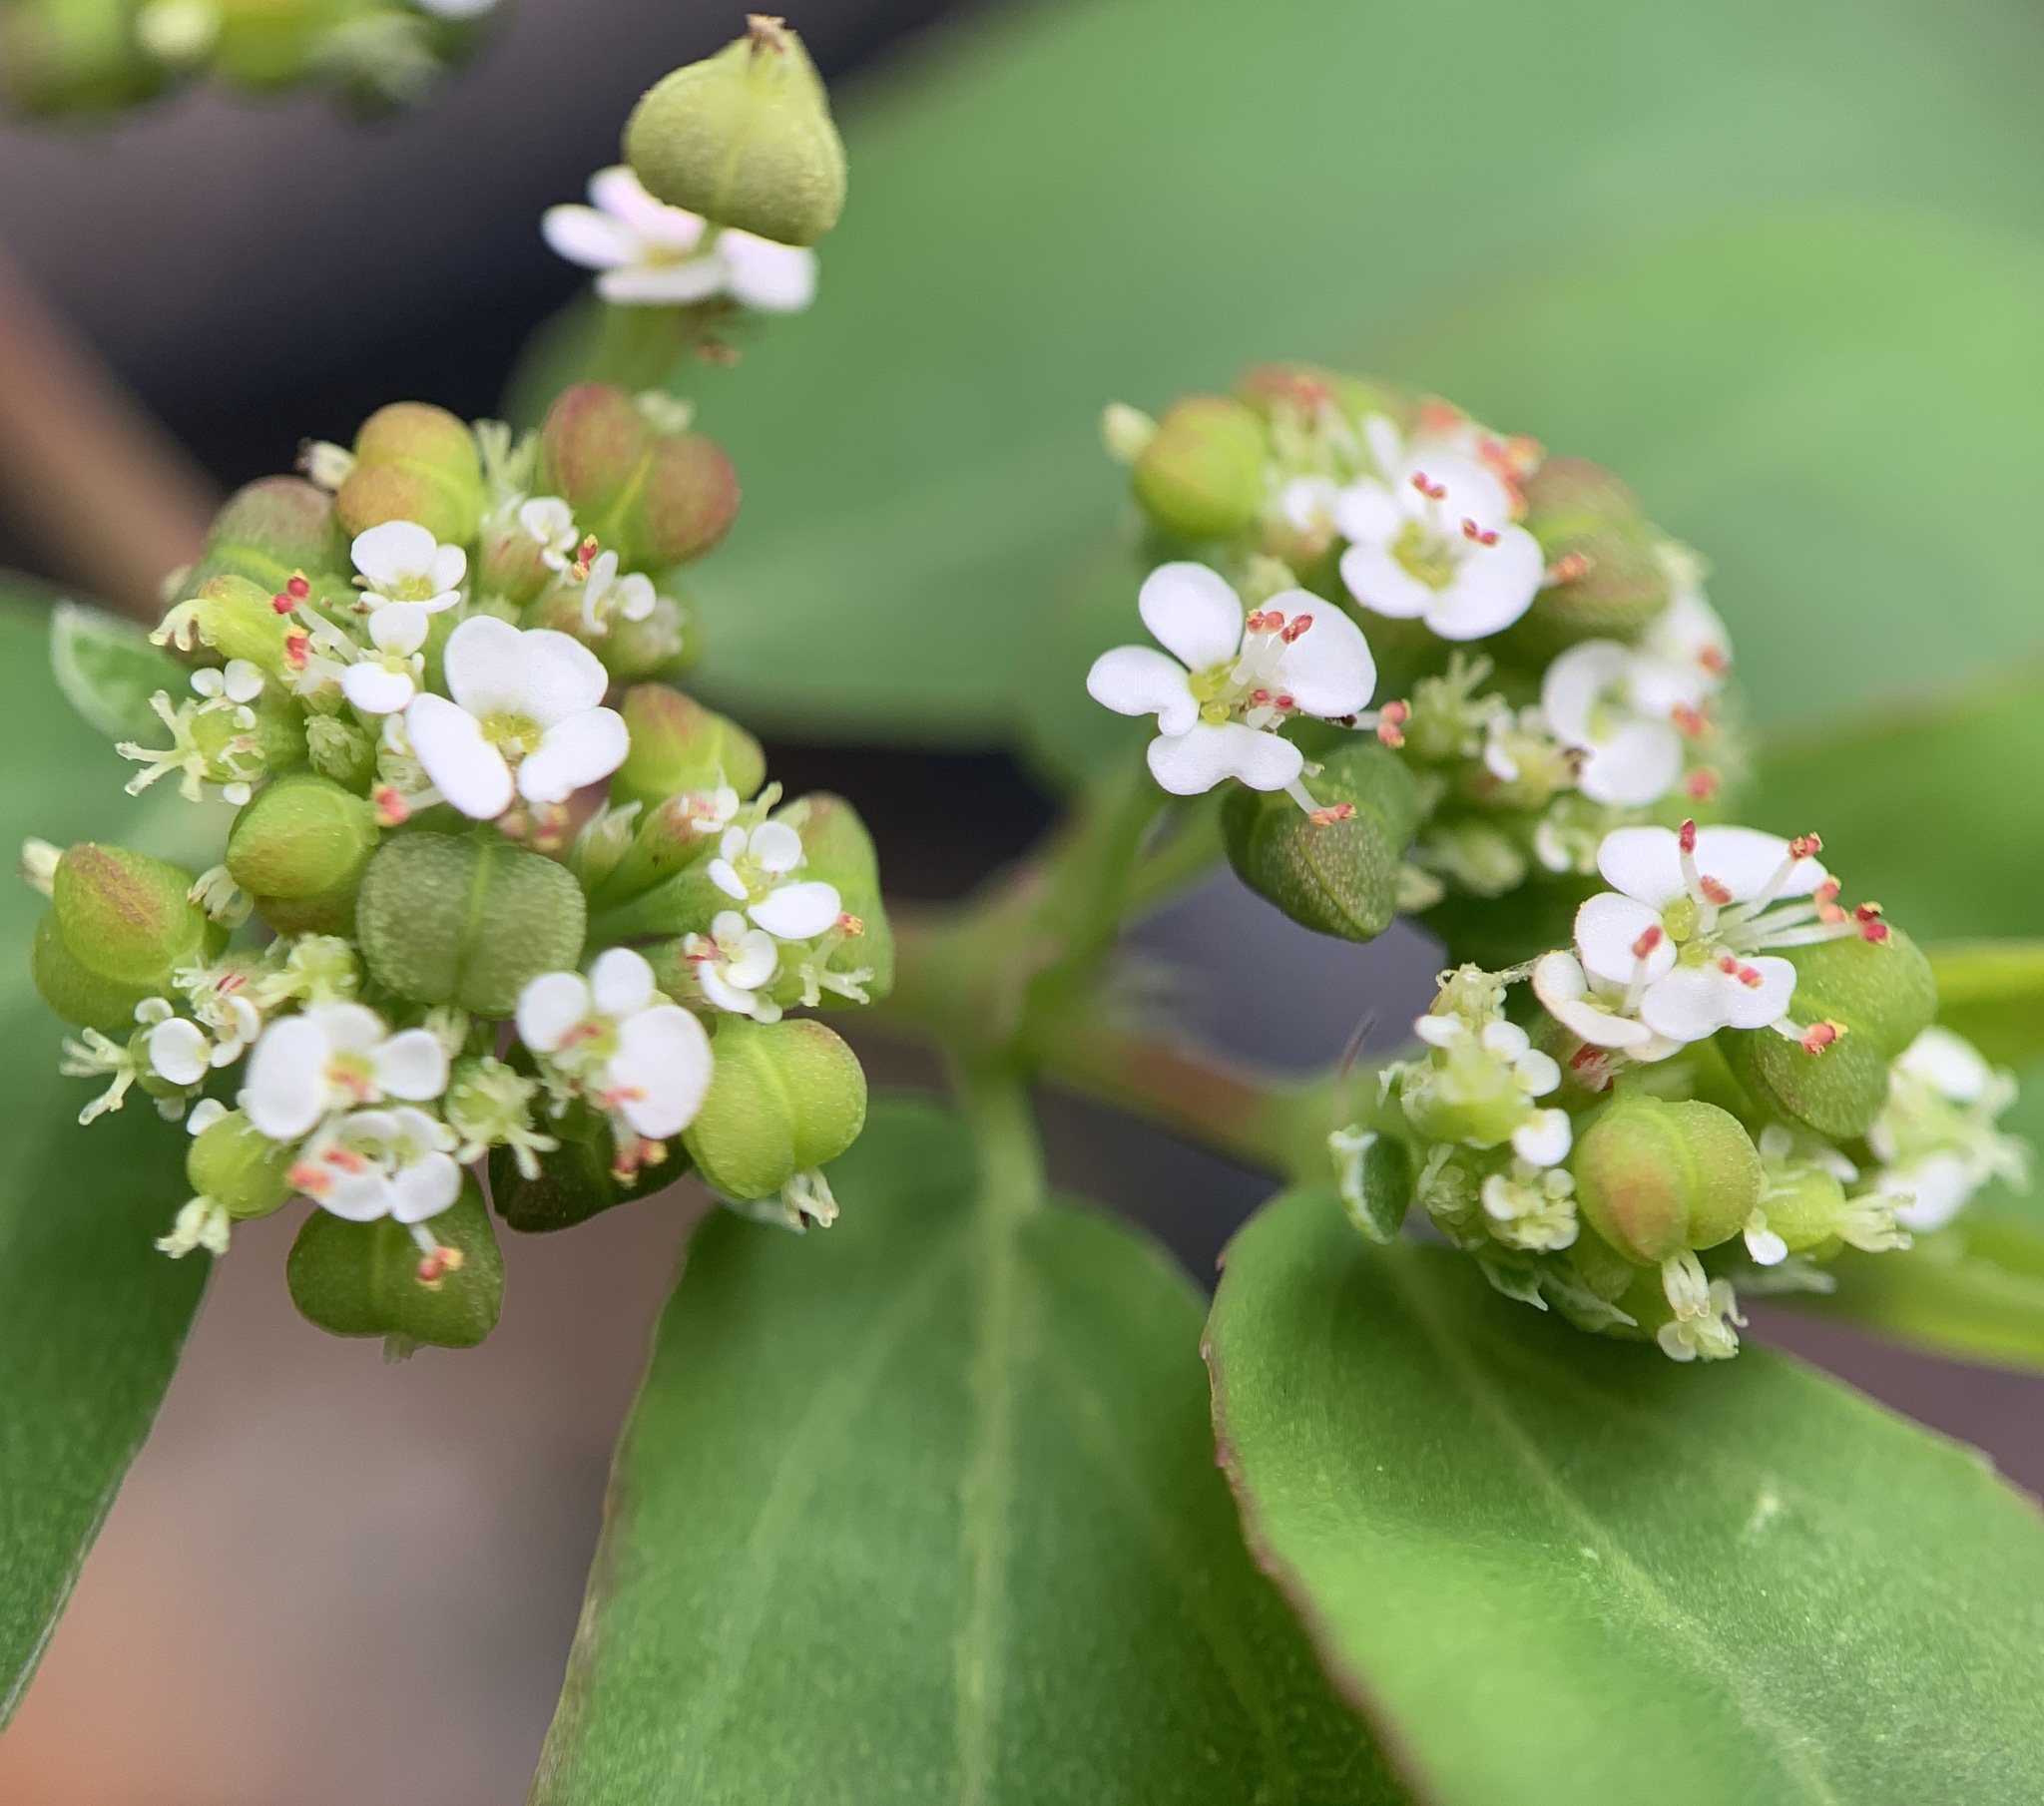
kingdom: Plantae
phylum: Tracheophyta
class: Magnoliopsida
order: Malpighiales
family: Euphorbiaceae
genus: Euphorbia
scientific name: Euphorbia hypericifolia
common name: Graceful sandmat
